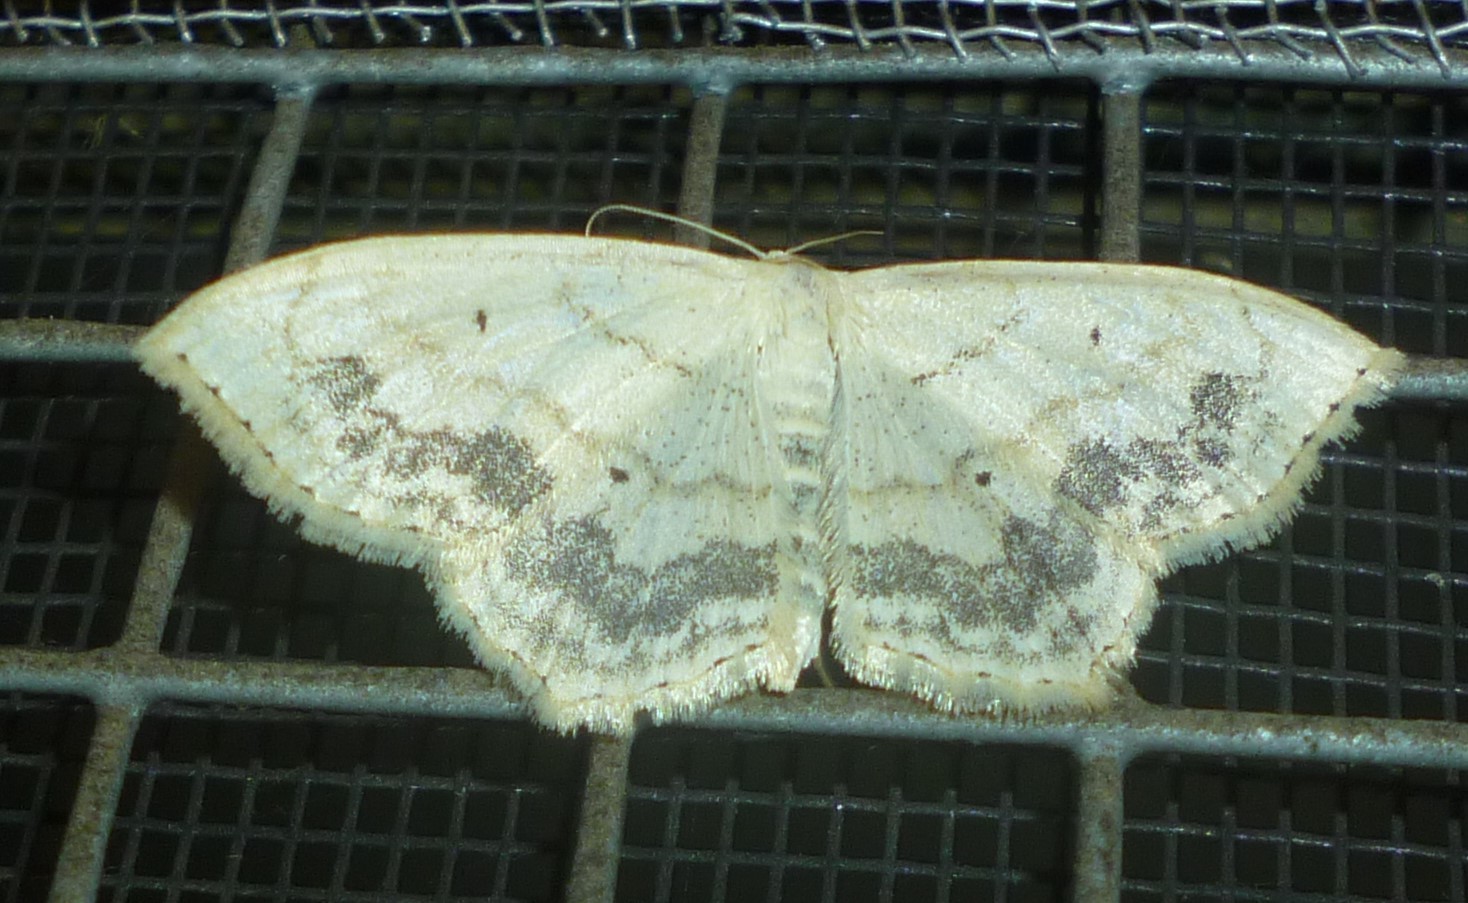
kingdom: Animalia
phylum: Arthropoda
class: Insecta
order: Lepidoptera
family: Geometridae
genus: Scopula
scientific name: Scopula limboundata
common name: Large lace border
